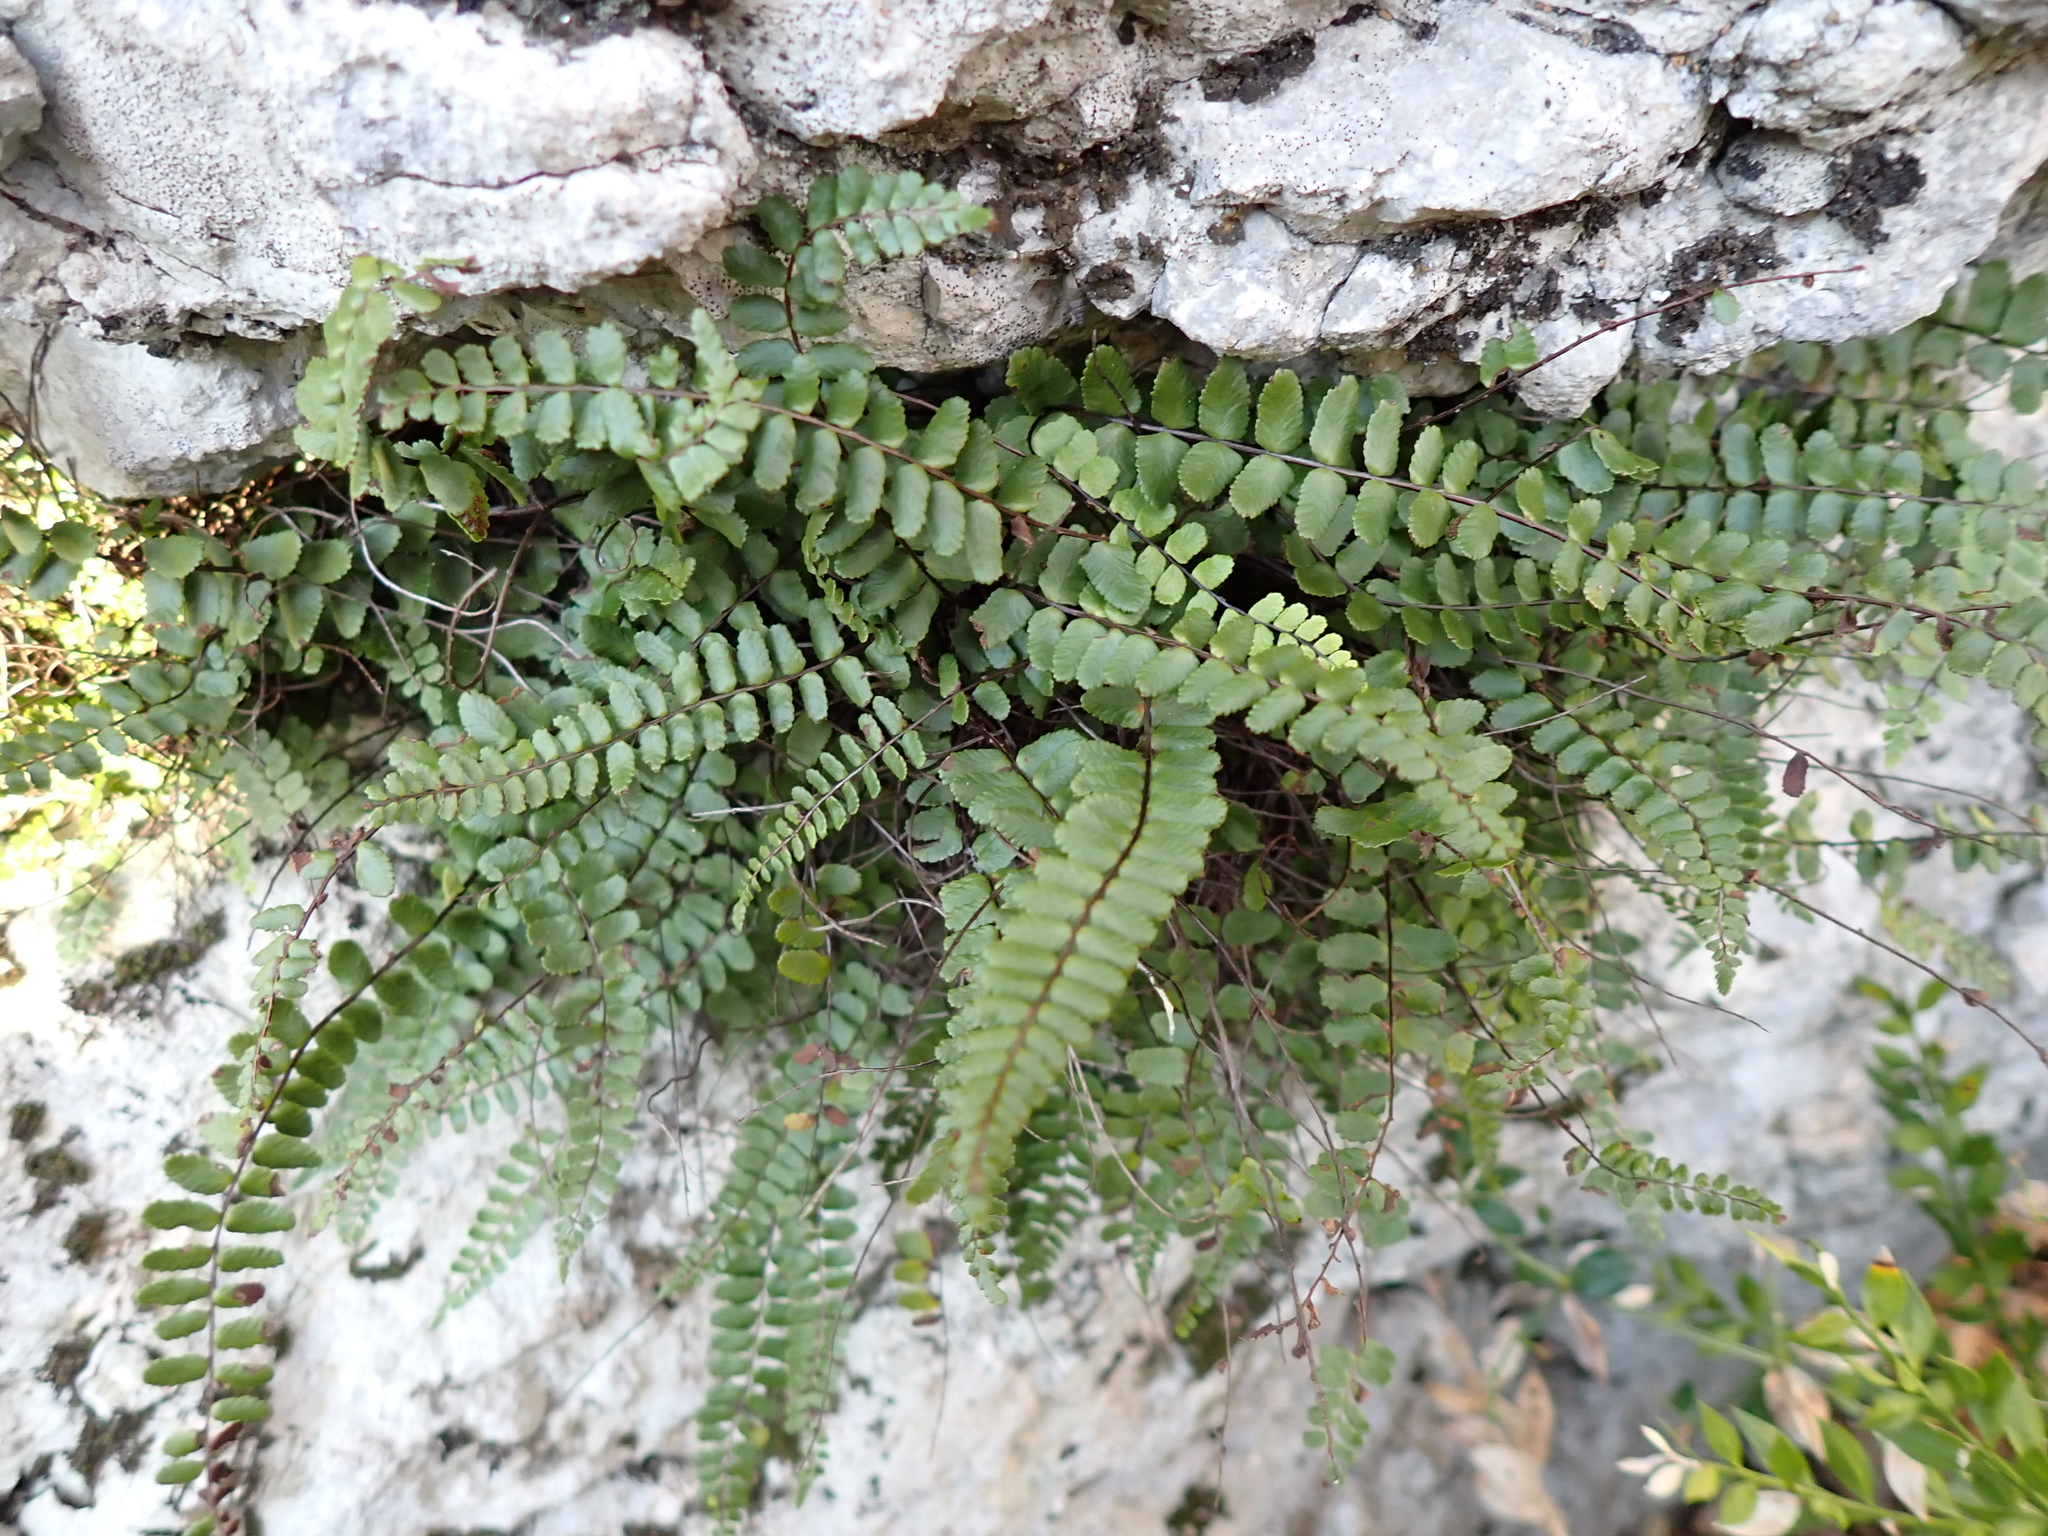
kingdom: Plantae
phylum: Tracheophyta
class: Polypodiopsida
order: Polypodiales
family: Aspleniaceae
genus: Asplenium
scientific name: Asplenium trichomanes
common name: Maidenhair spleenwort
